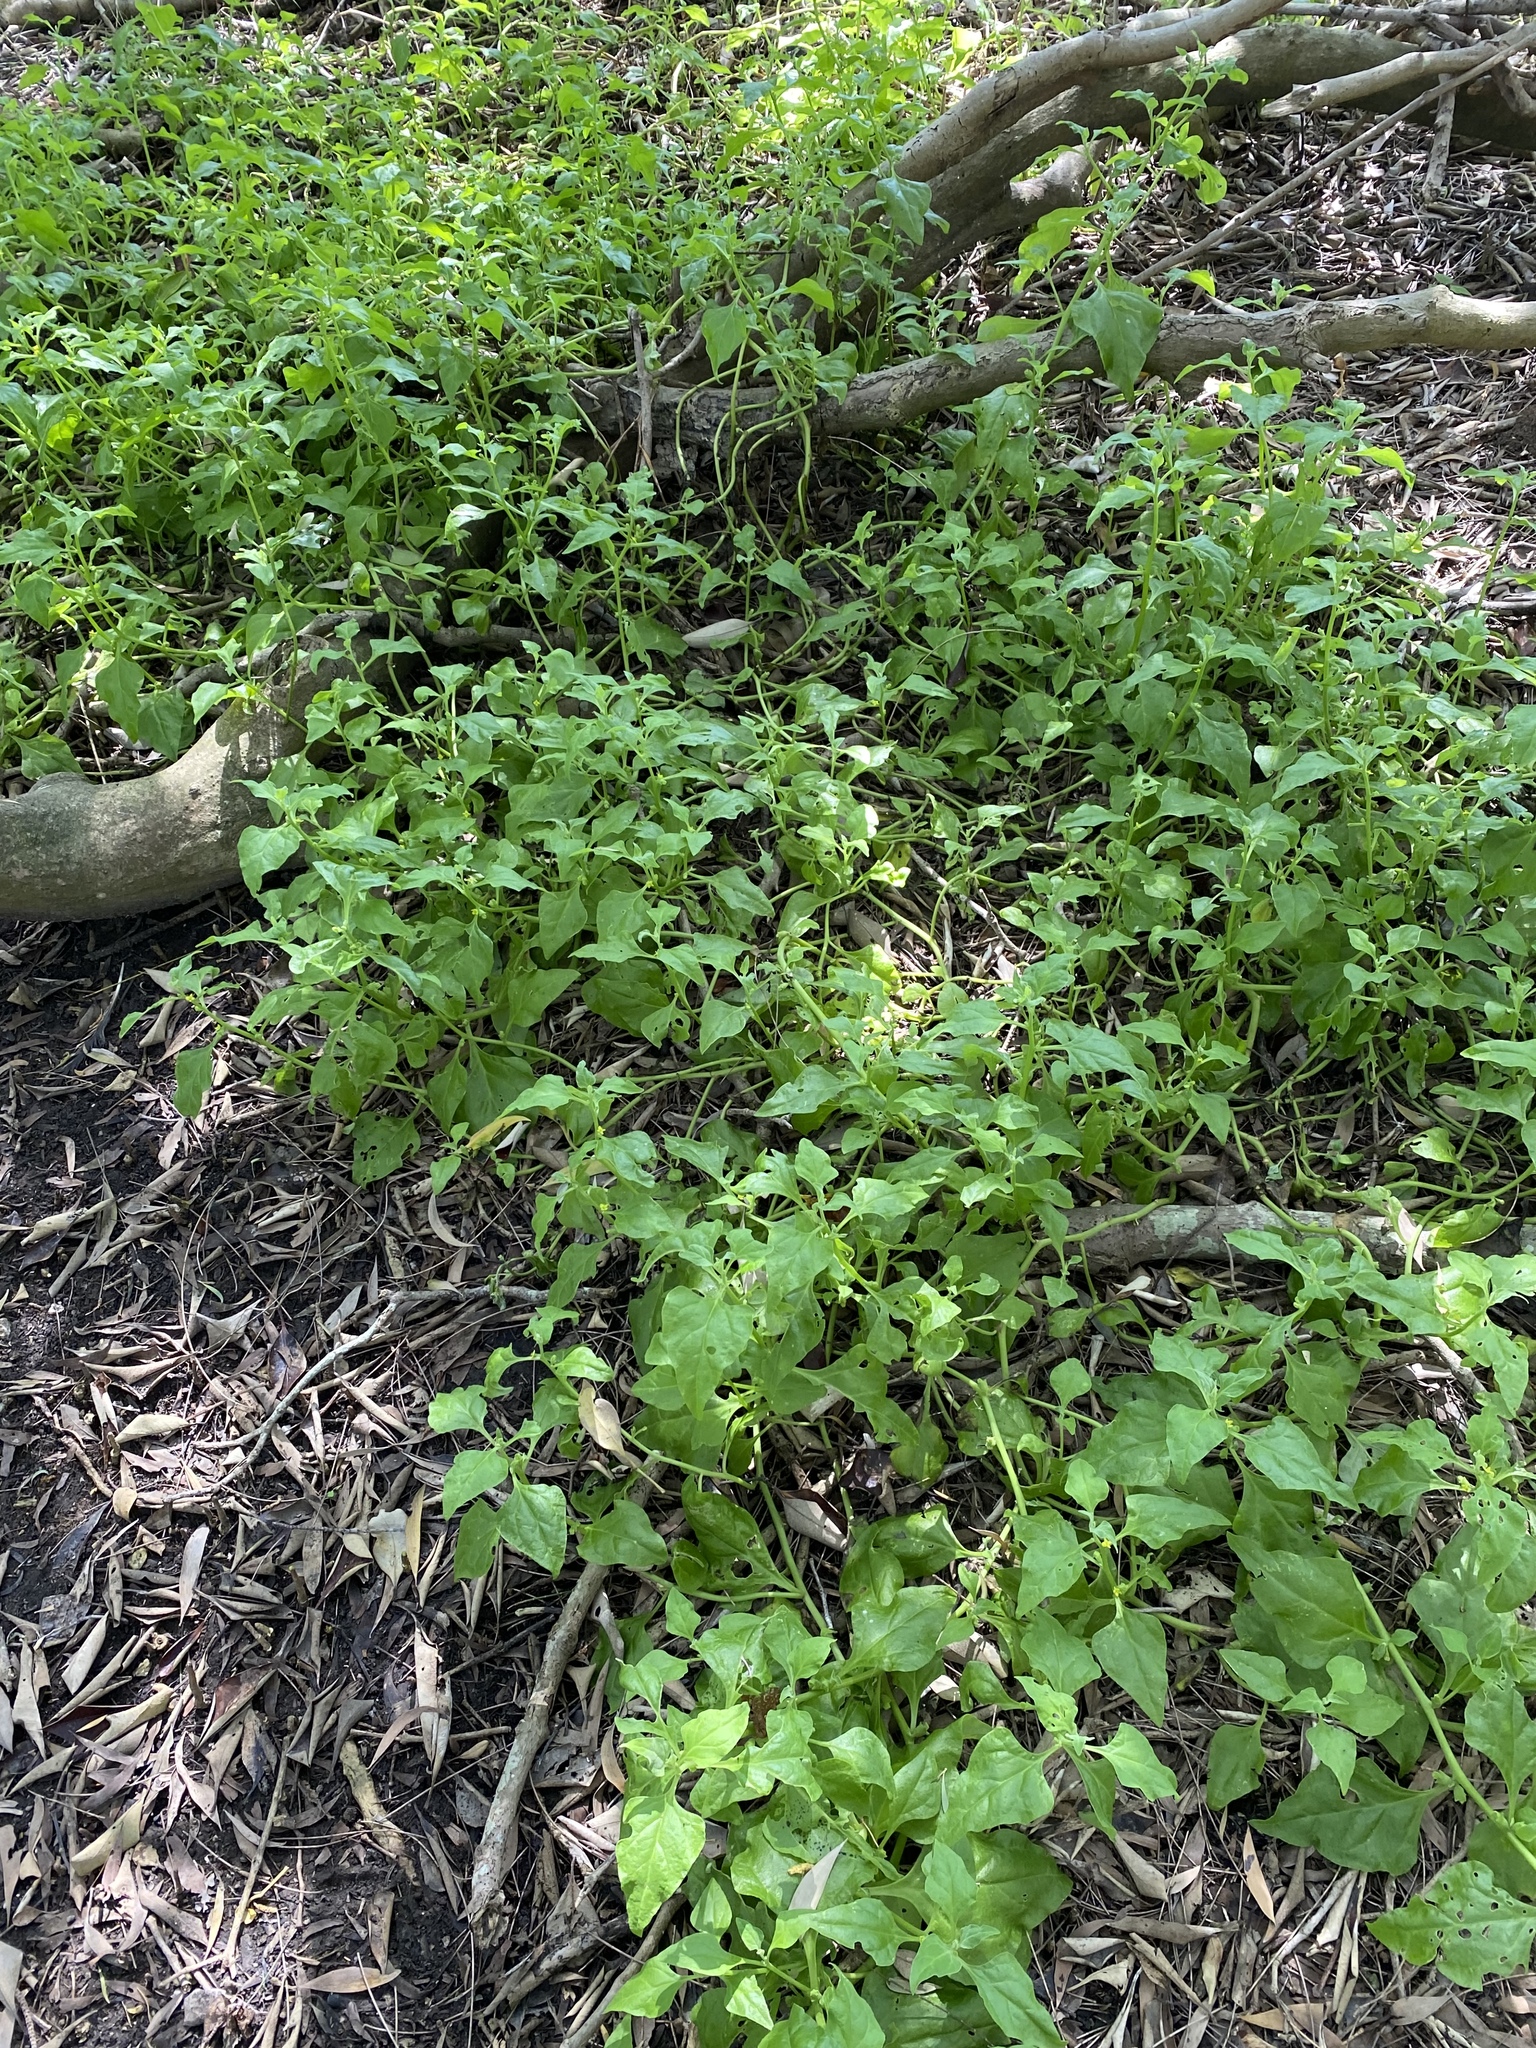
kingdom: Plantae
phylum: Tracheophyta
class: Magnoliopsida
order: Caryophyllales
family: Aizoaceae
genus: Tetragonia
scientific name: Tetragonia tetragonoides
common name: New zealand-spinach
